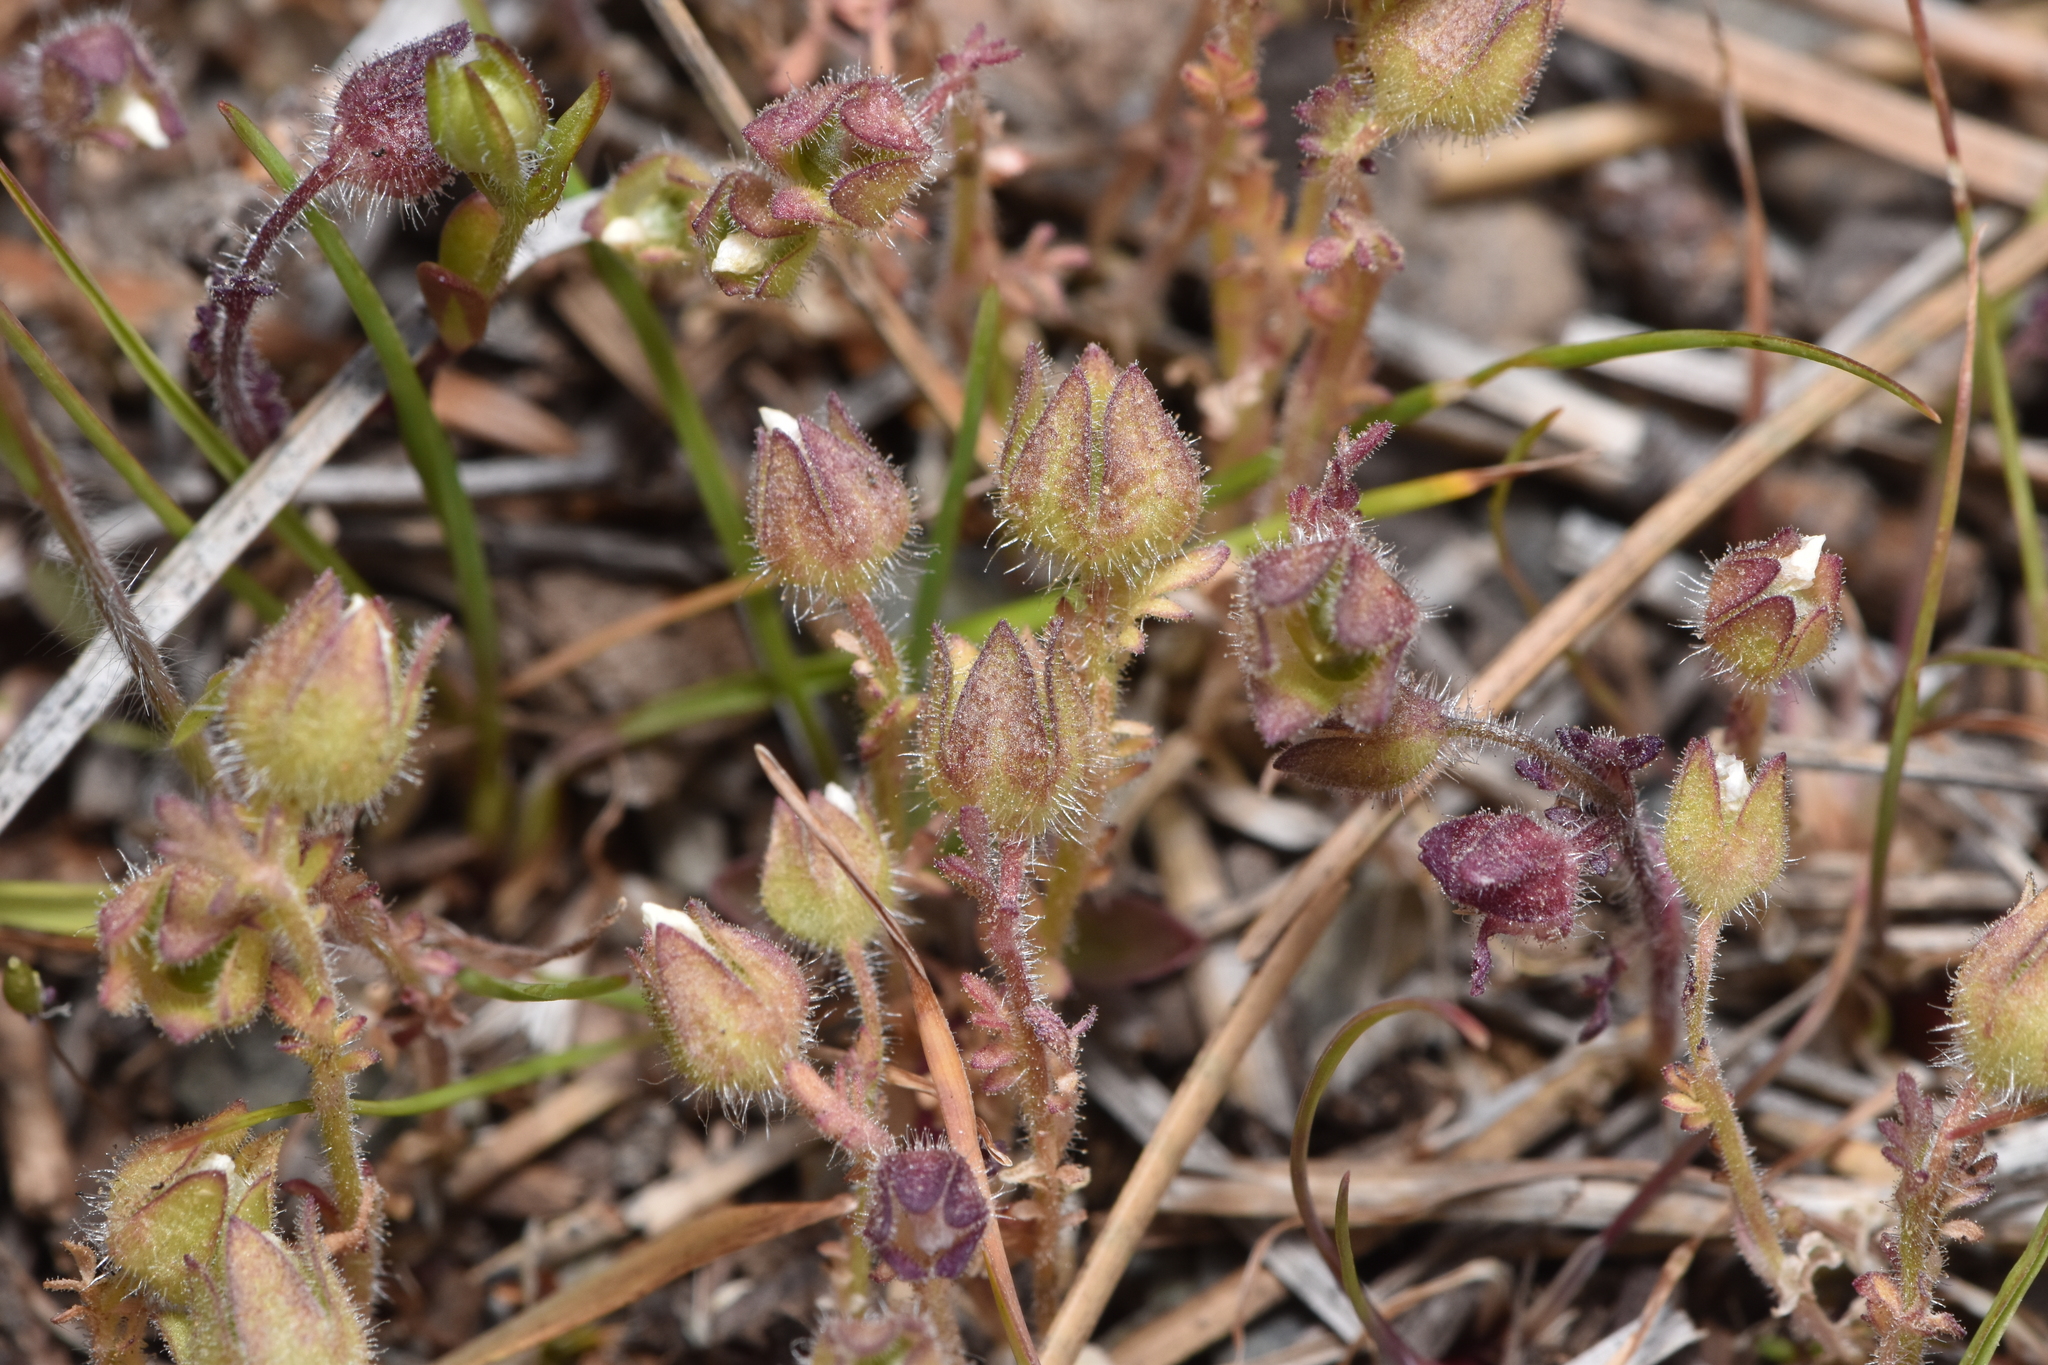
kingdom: Plantae
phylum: Tracheophyta
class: Magnoliopsida
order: Ericales
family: Polemoniaceae
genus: Polemonium
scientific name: Polemonium micranthum
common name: Annual jacob's-ladder
